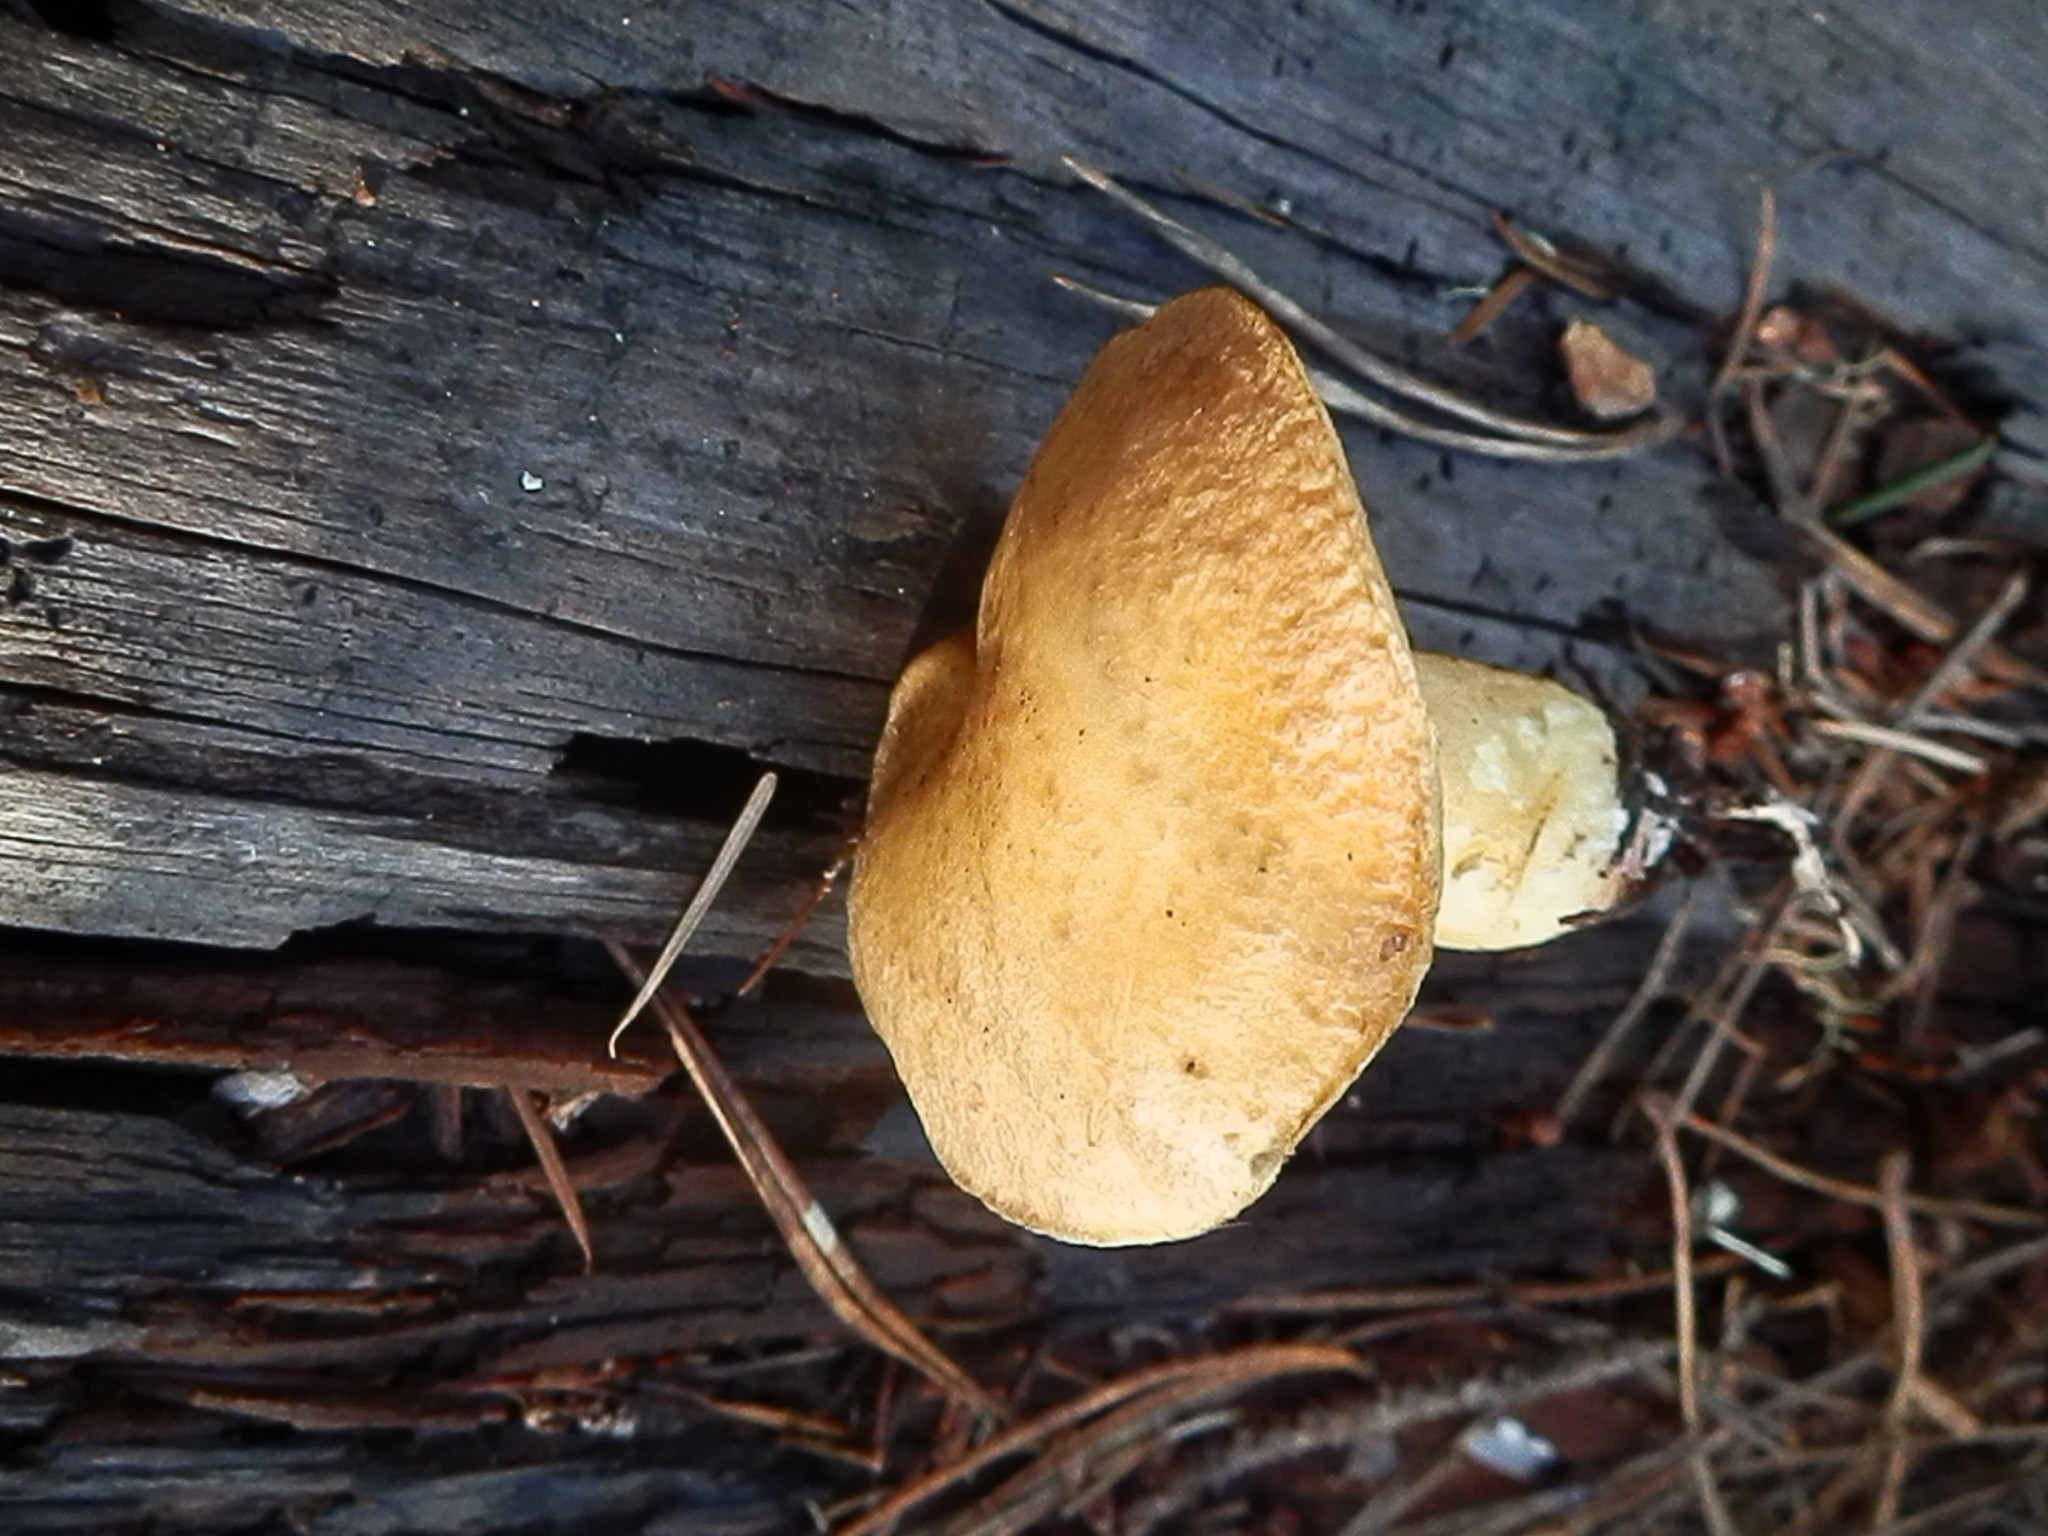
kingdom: Fungi
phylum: Basidiomycota
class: Agaricomycetes
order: Boletales
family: Suillaceae
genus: Suillus
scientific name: Suillus tomentosus
